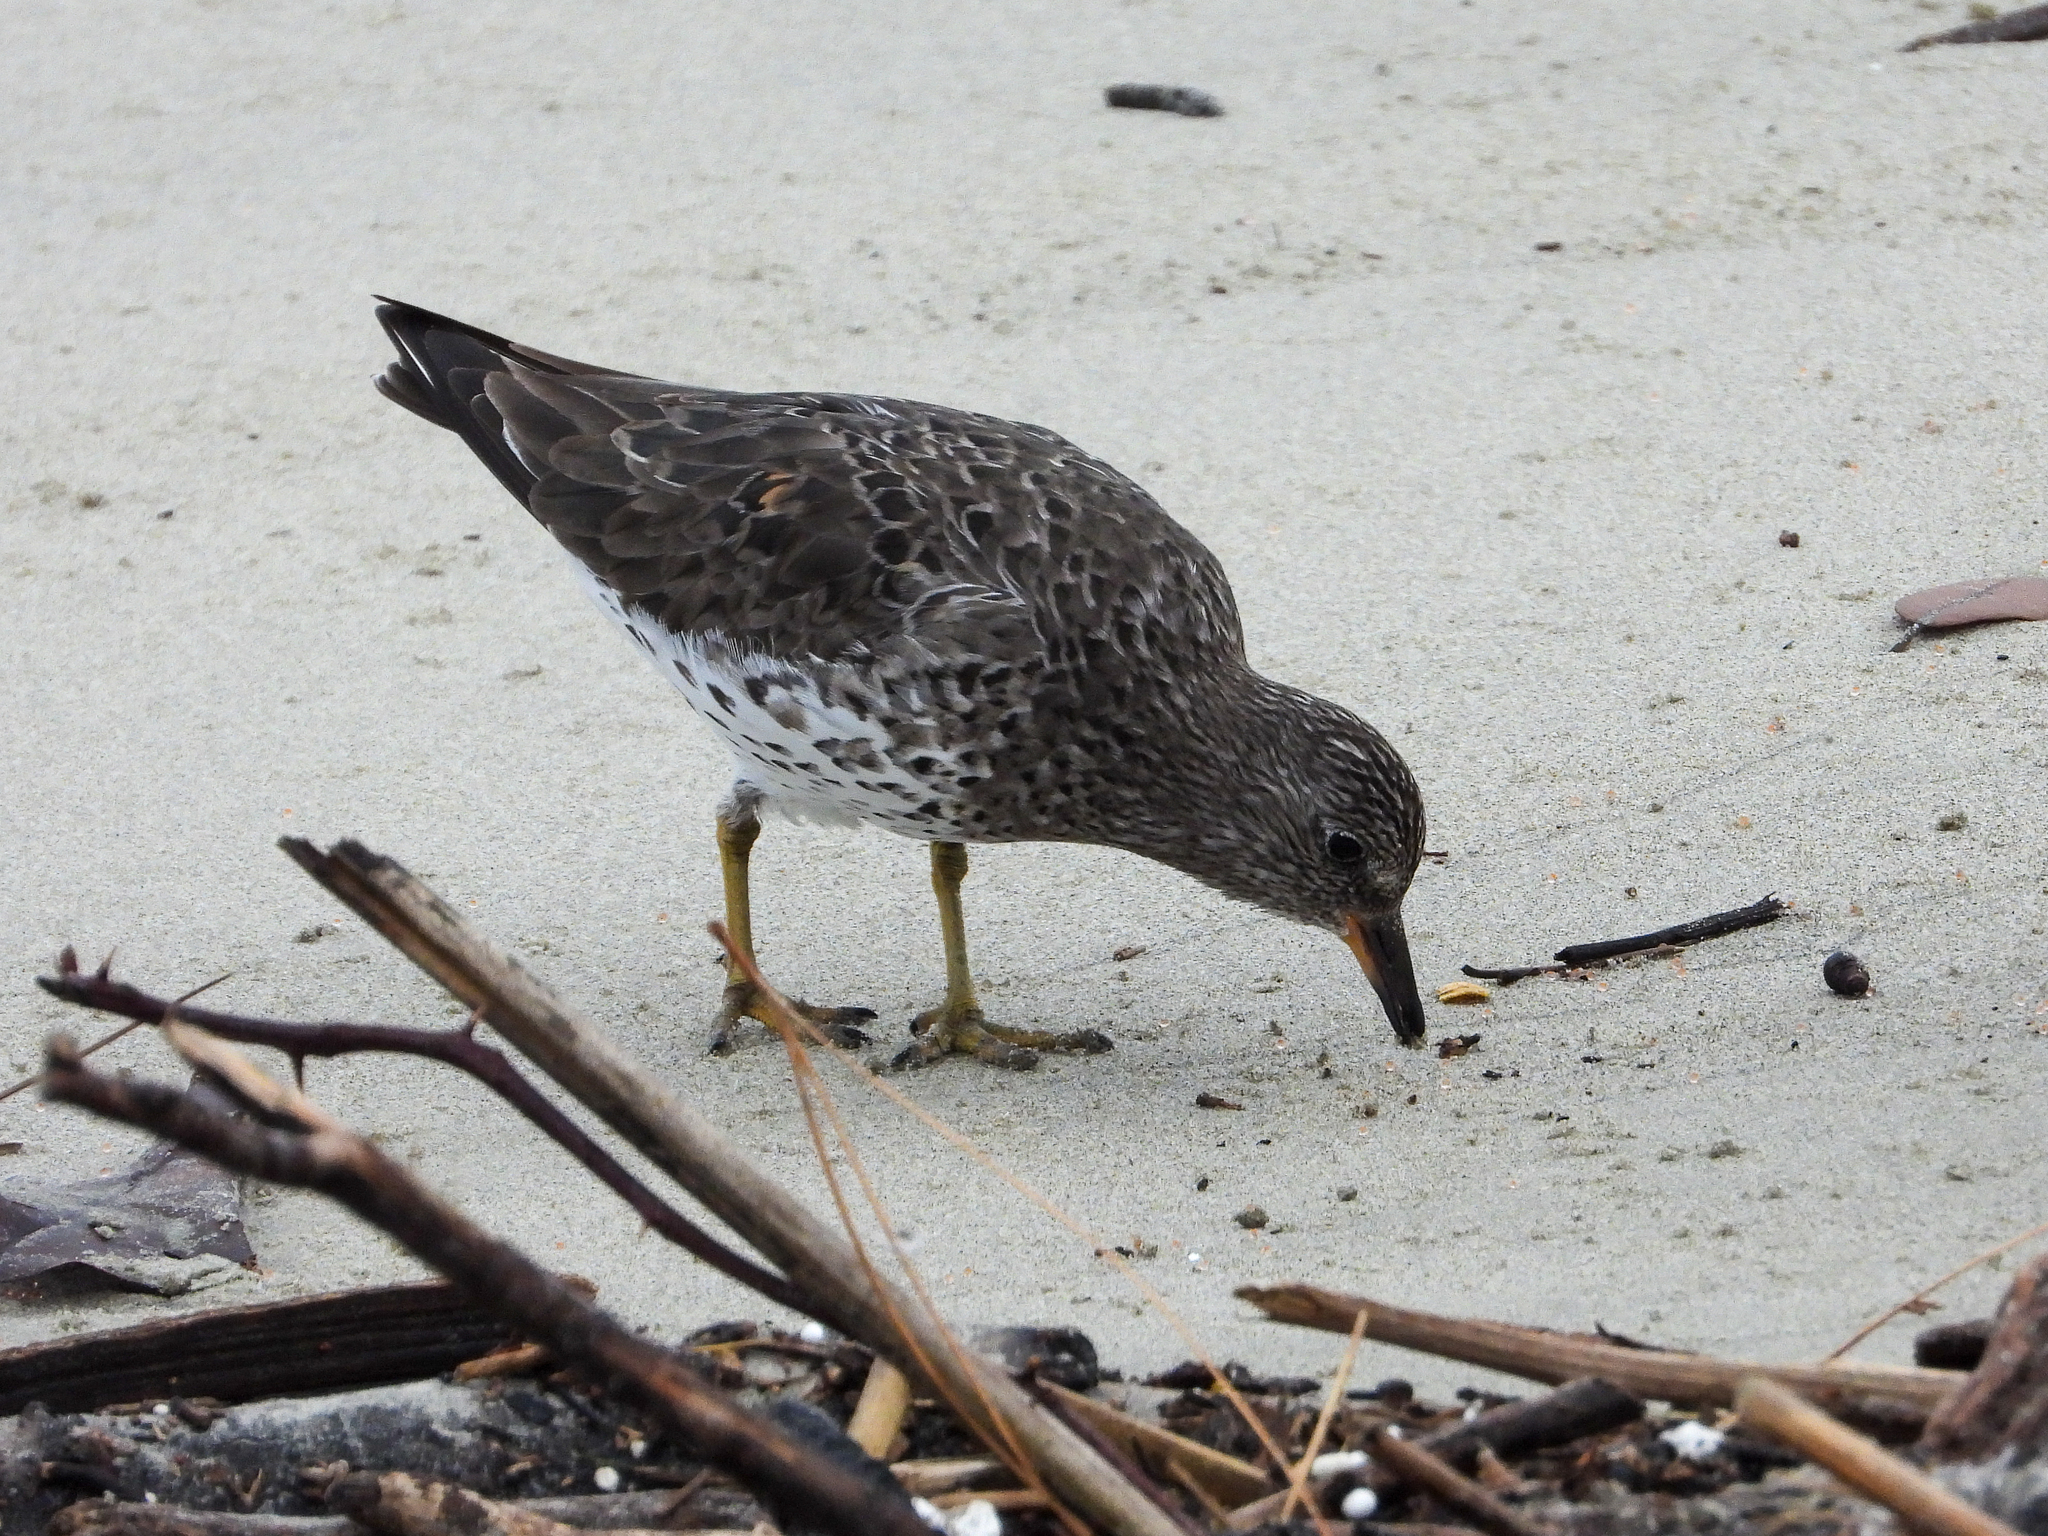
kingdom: Animalia
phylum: Chordata
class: Aves
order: Charadriiformes
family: Scolopacidae
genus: Calidris
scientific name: Calidris virgata
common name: Surfbird
